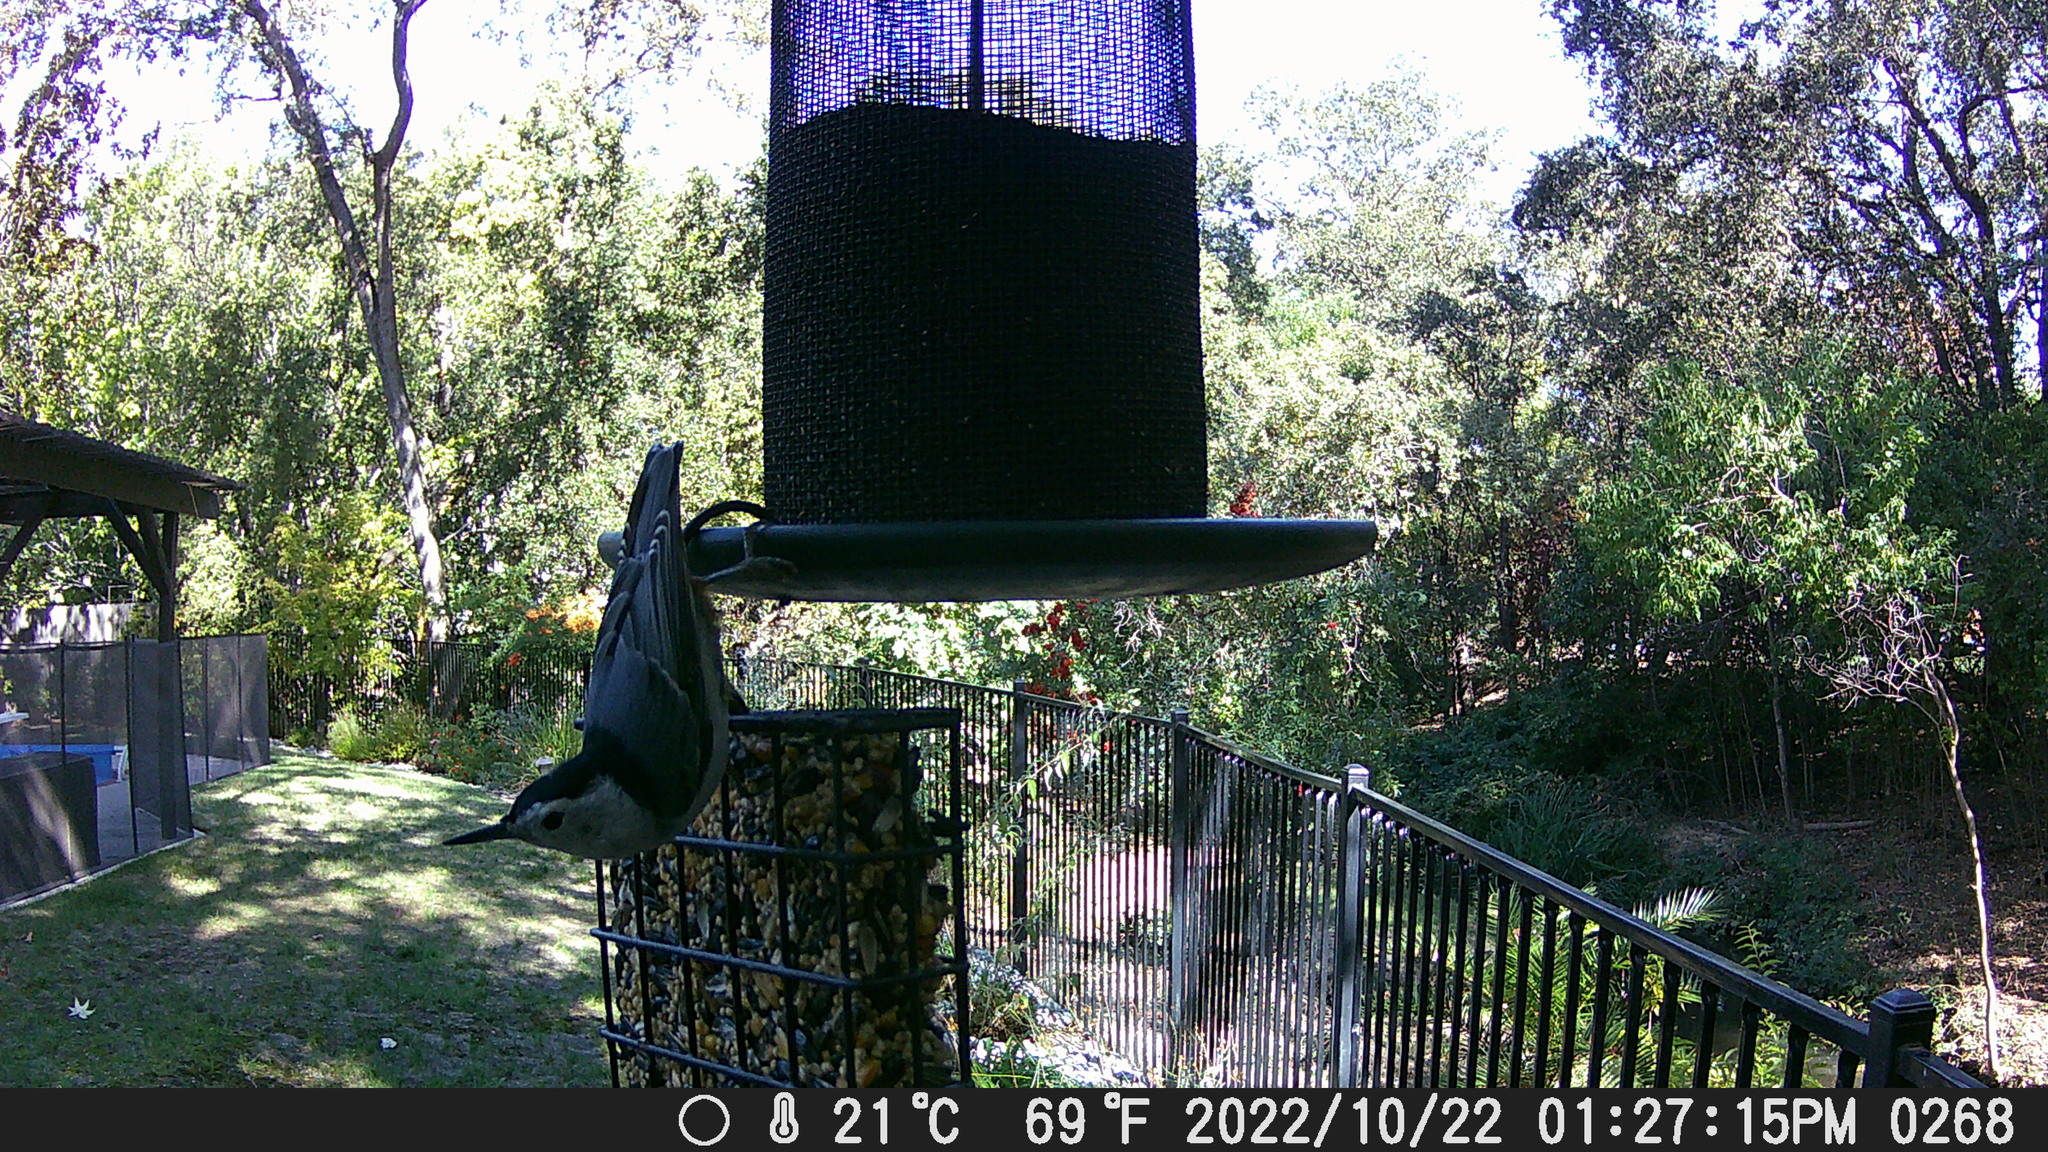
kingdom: Animalia
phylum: Chordata
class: Aves
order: Passeriformes
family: Sittidae
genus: Sitta
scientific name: Sitta carolinensis
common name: White-breasted nuthatch
